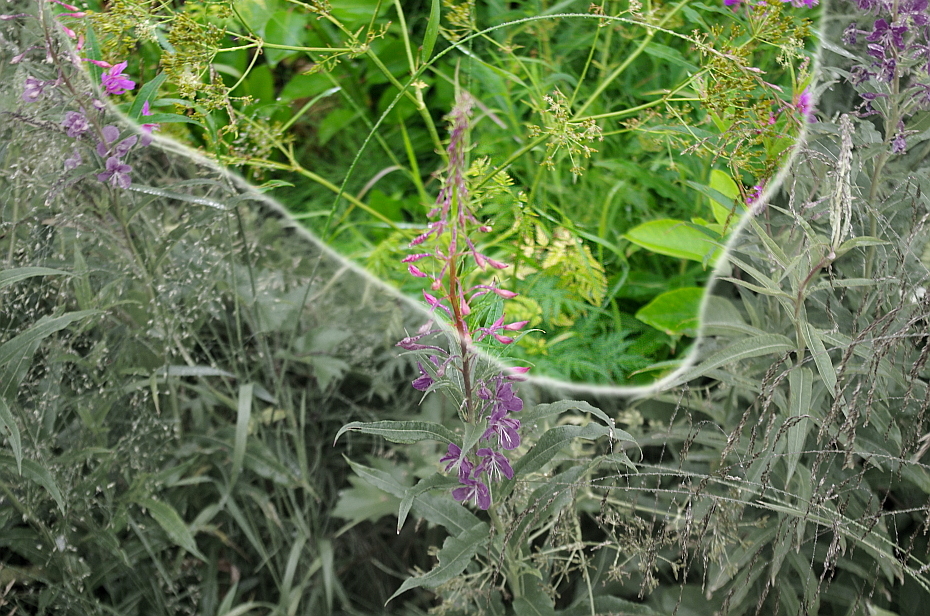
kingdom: Plantae
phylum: Tracheophyta
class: Magnoliopsida
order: Apiales
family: Apiaceae
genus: Anthriscus
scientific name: Anthriscus sylvestris
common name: Cow parsley
